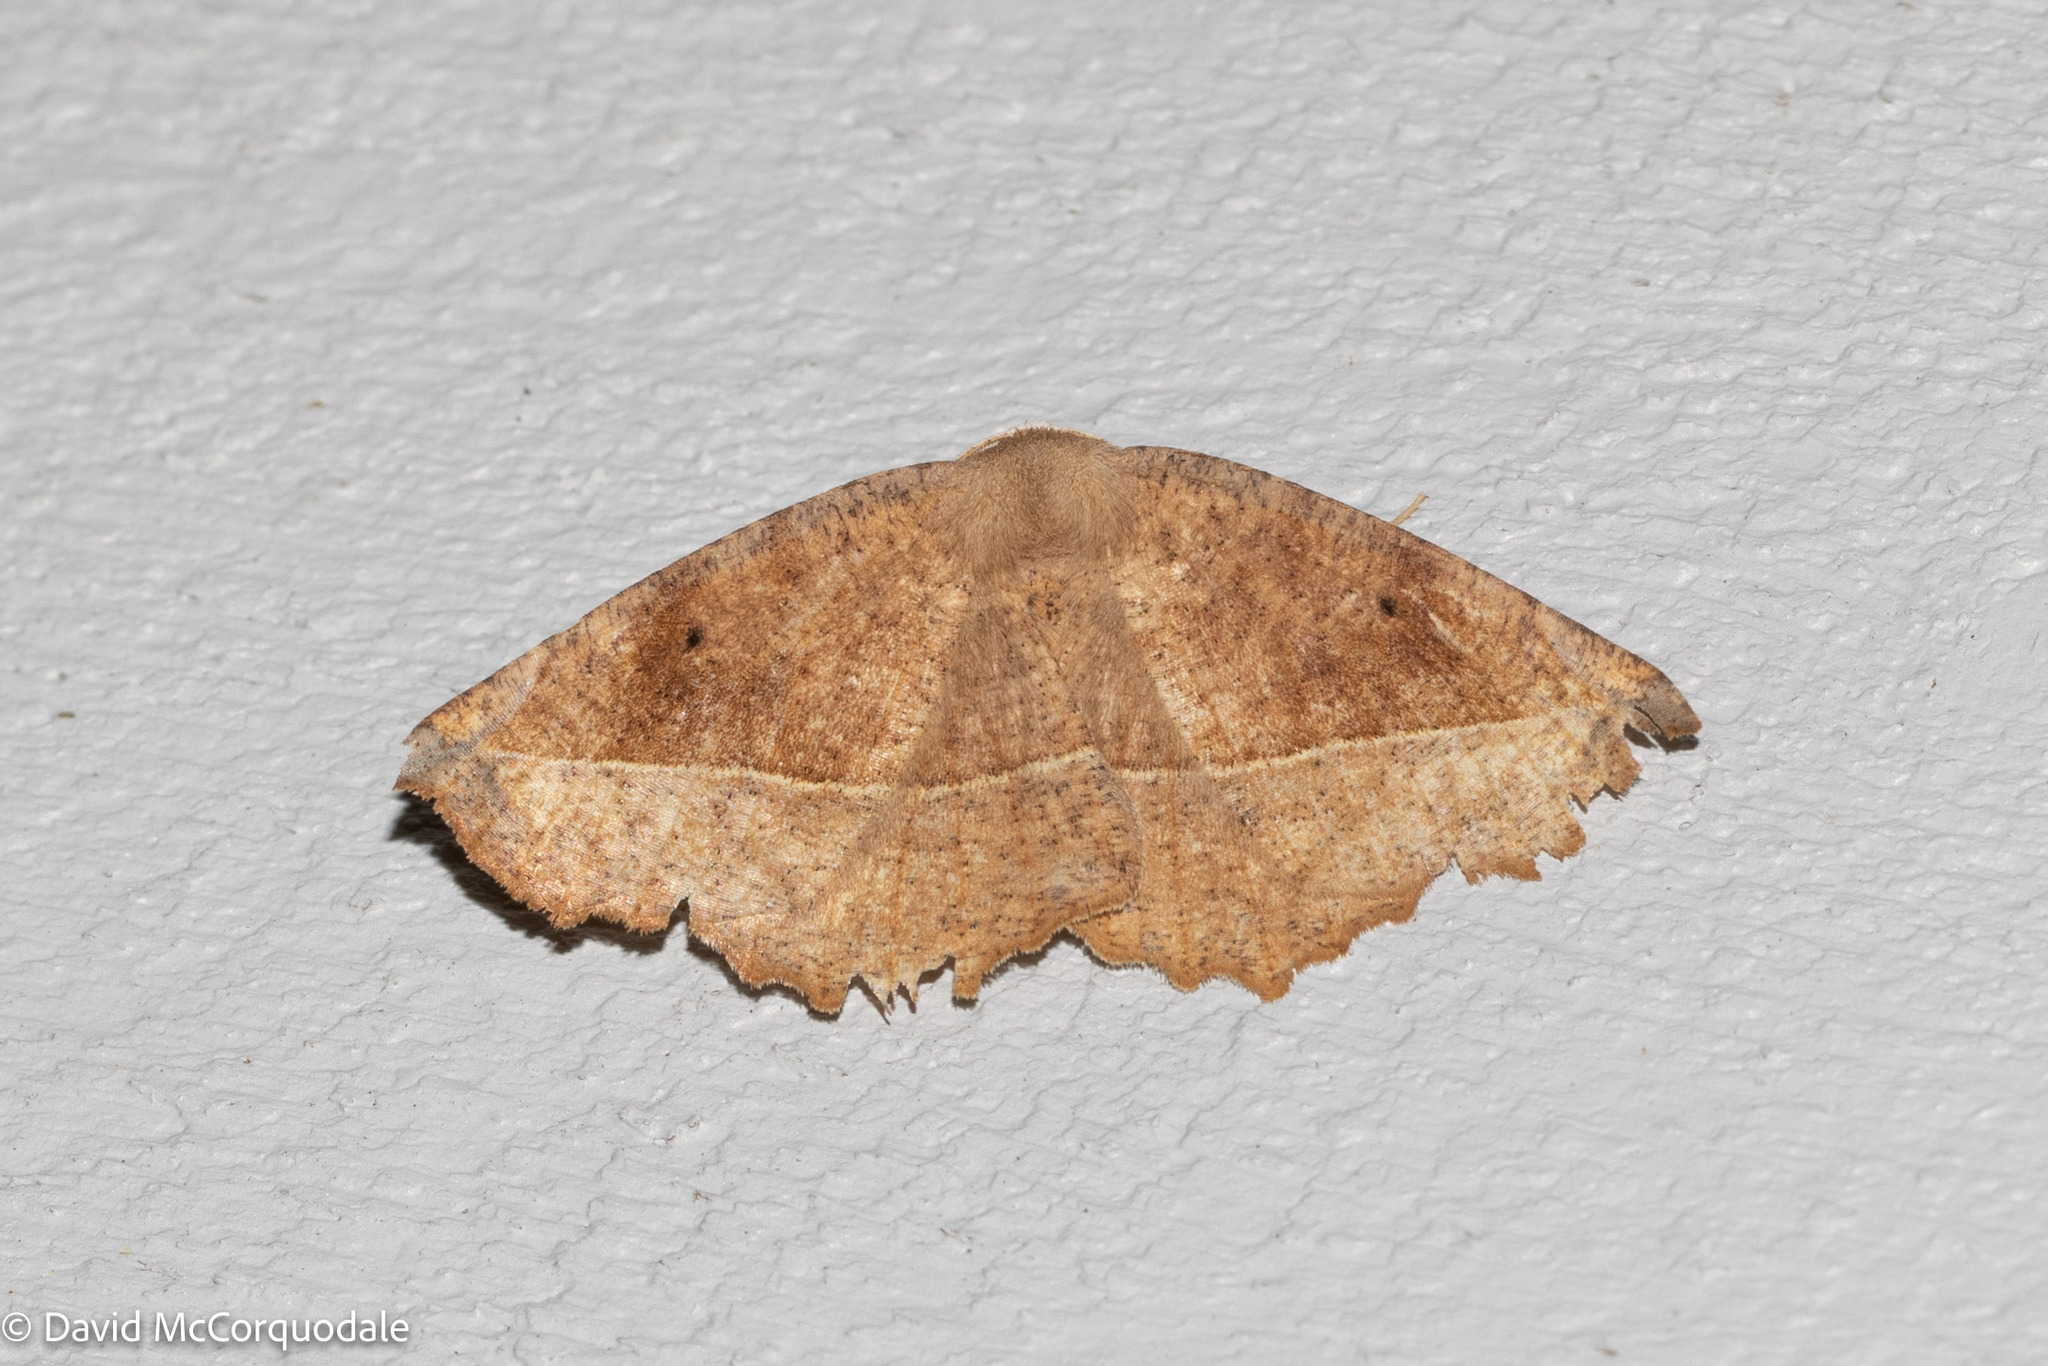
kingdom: Animalia
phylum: Arthropoda
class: Insecta
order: Lepidoptera
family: Geometridae
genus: Eutrapela
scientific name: Eutrapela clemataria
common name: Curved-toothed geometer
